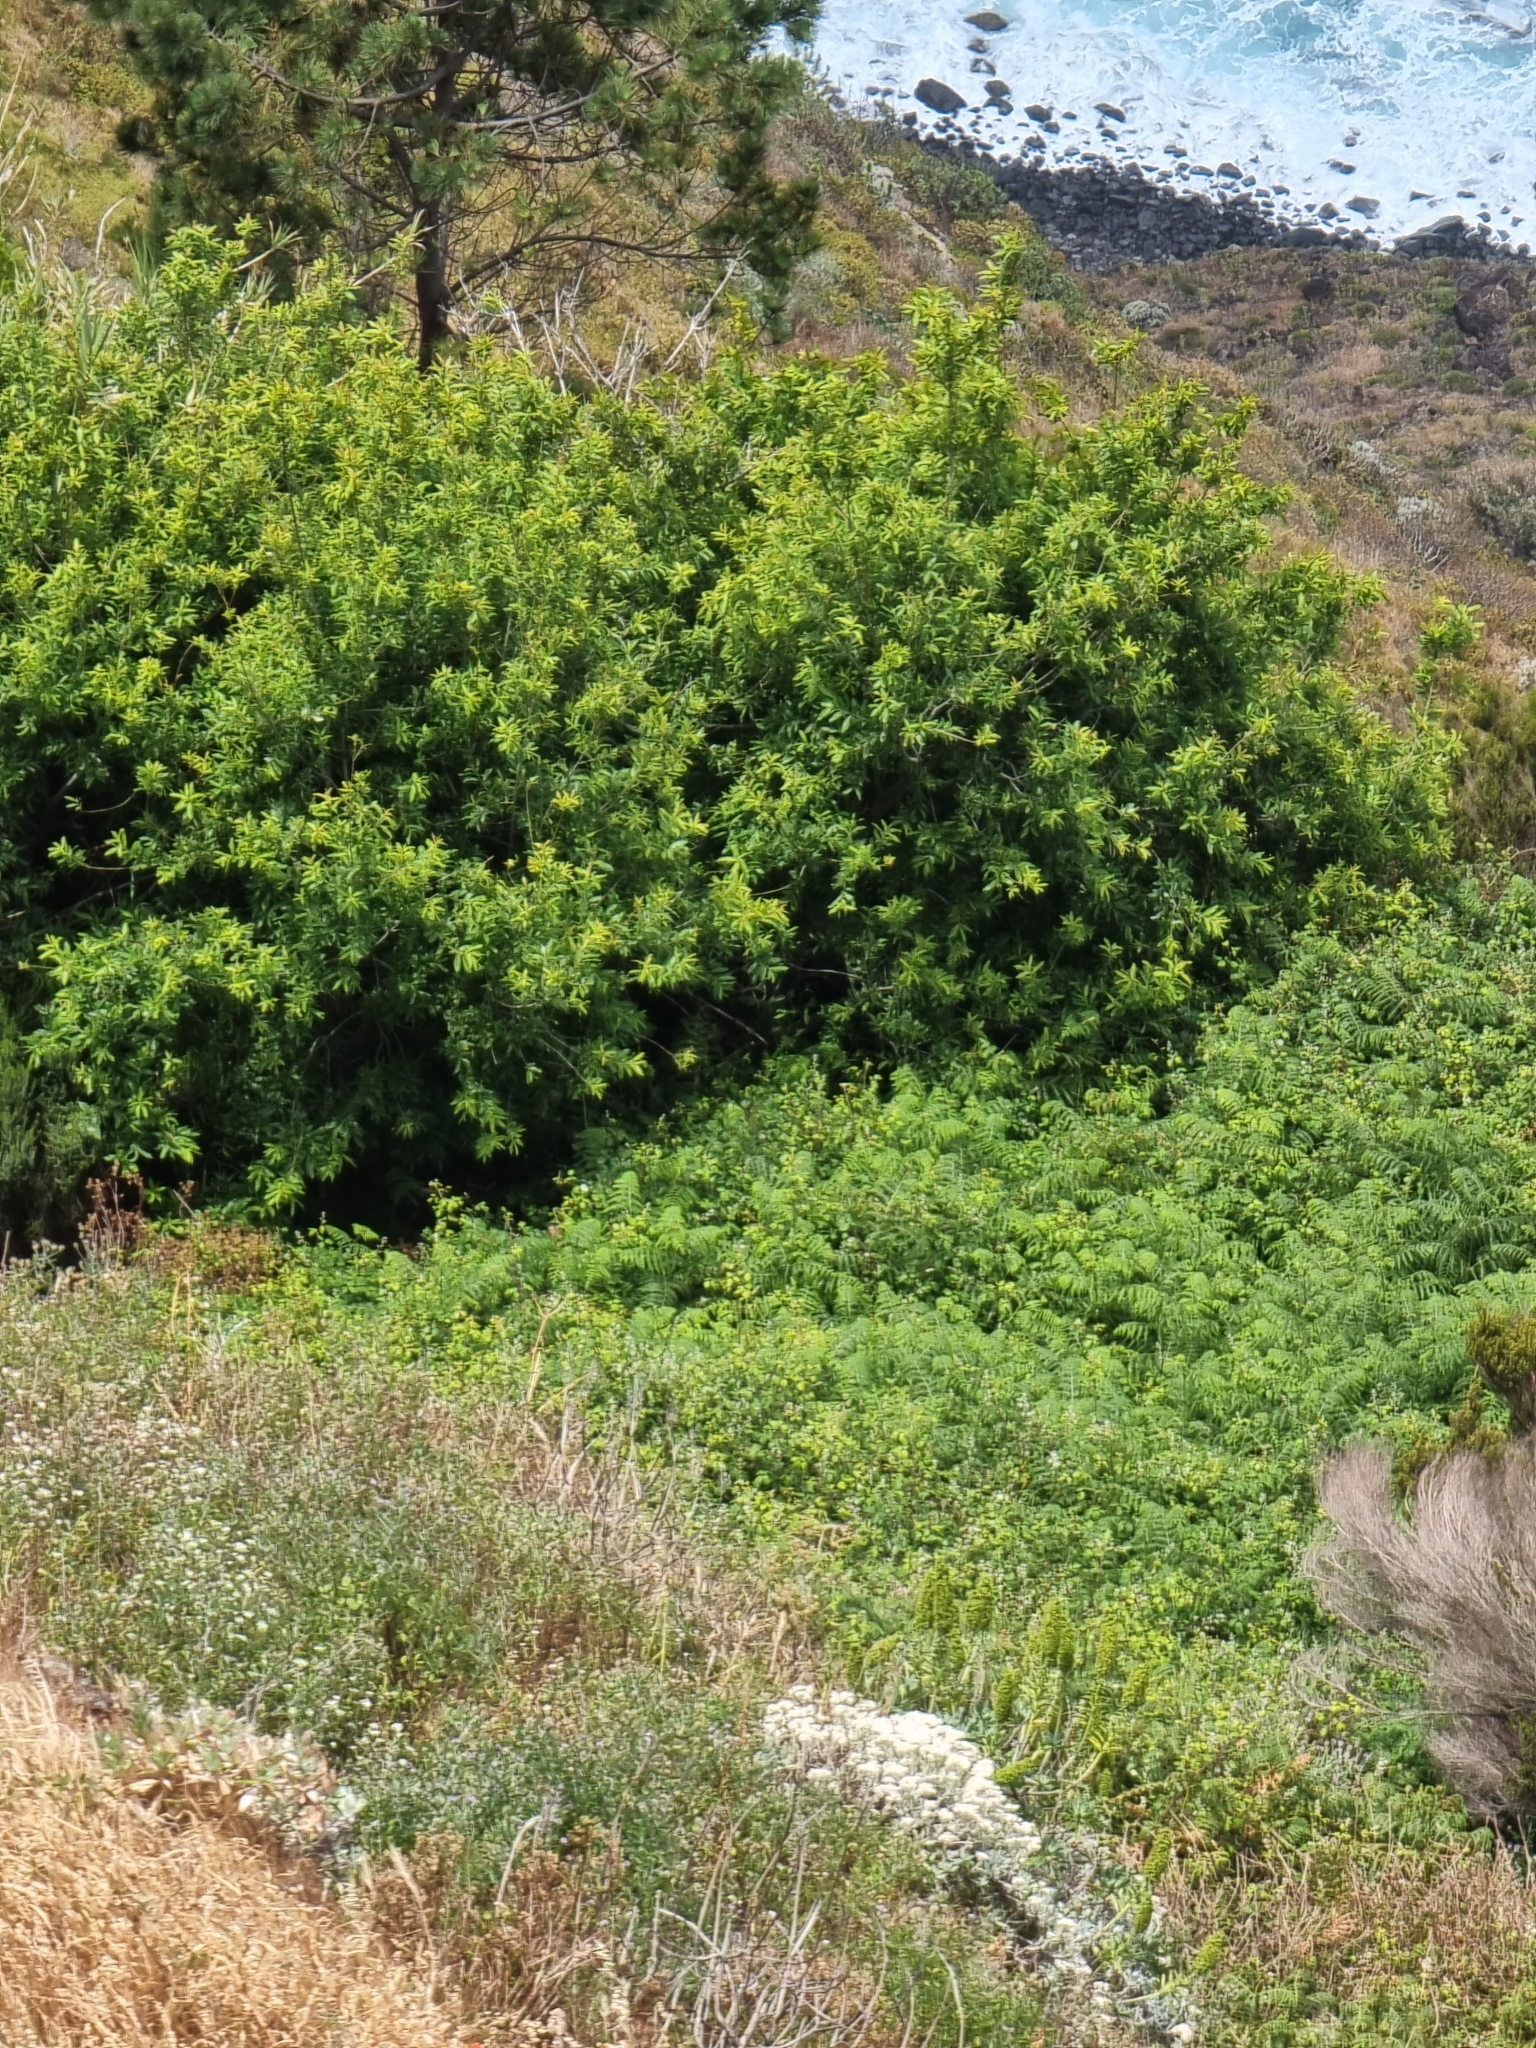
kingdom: Plantae
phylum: Tracheophyta
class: Magnoliopsida
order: Malpighiales
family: Salicaceae
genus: Salix
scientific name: Salix canariensis
